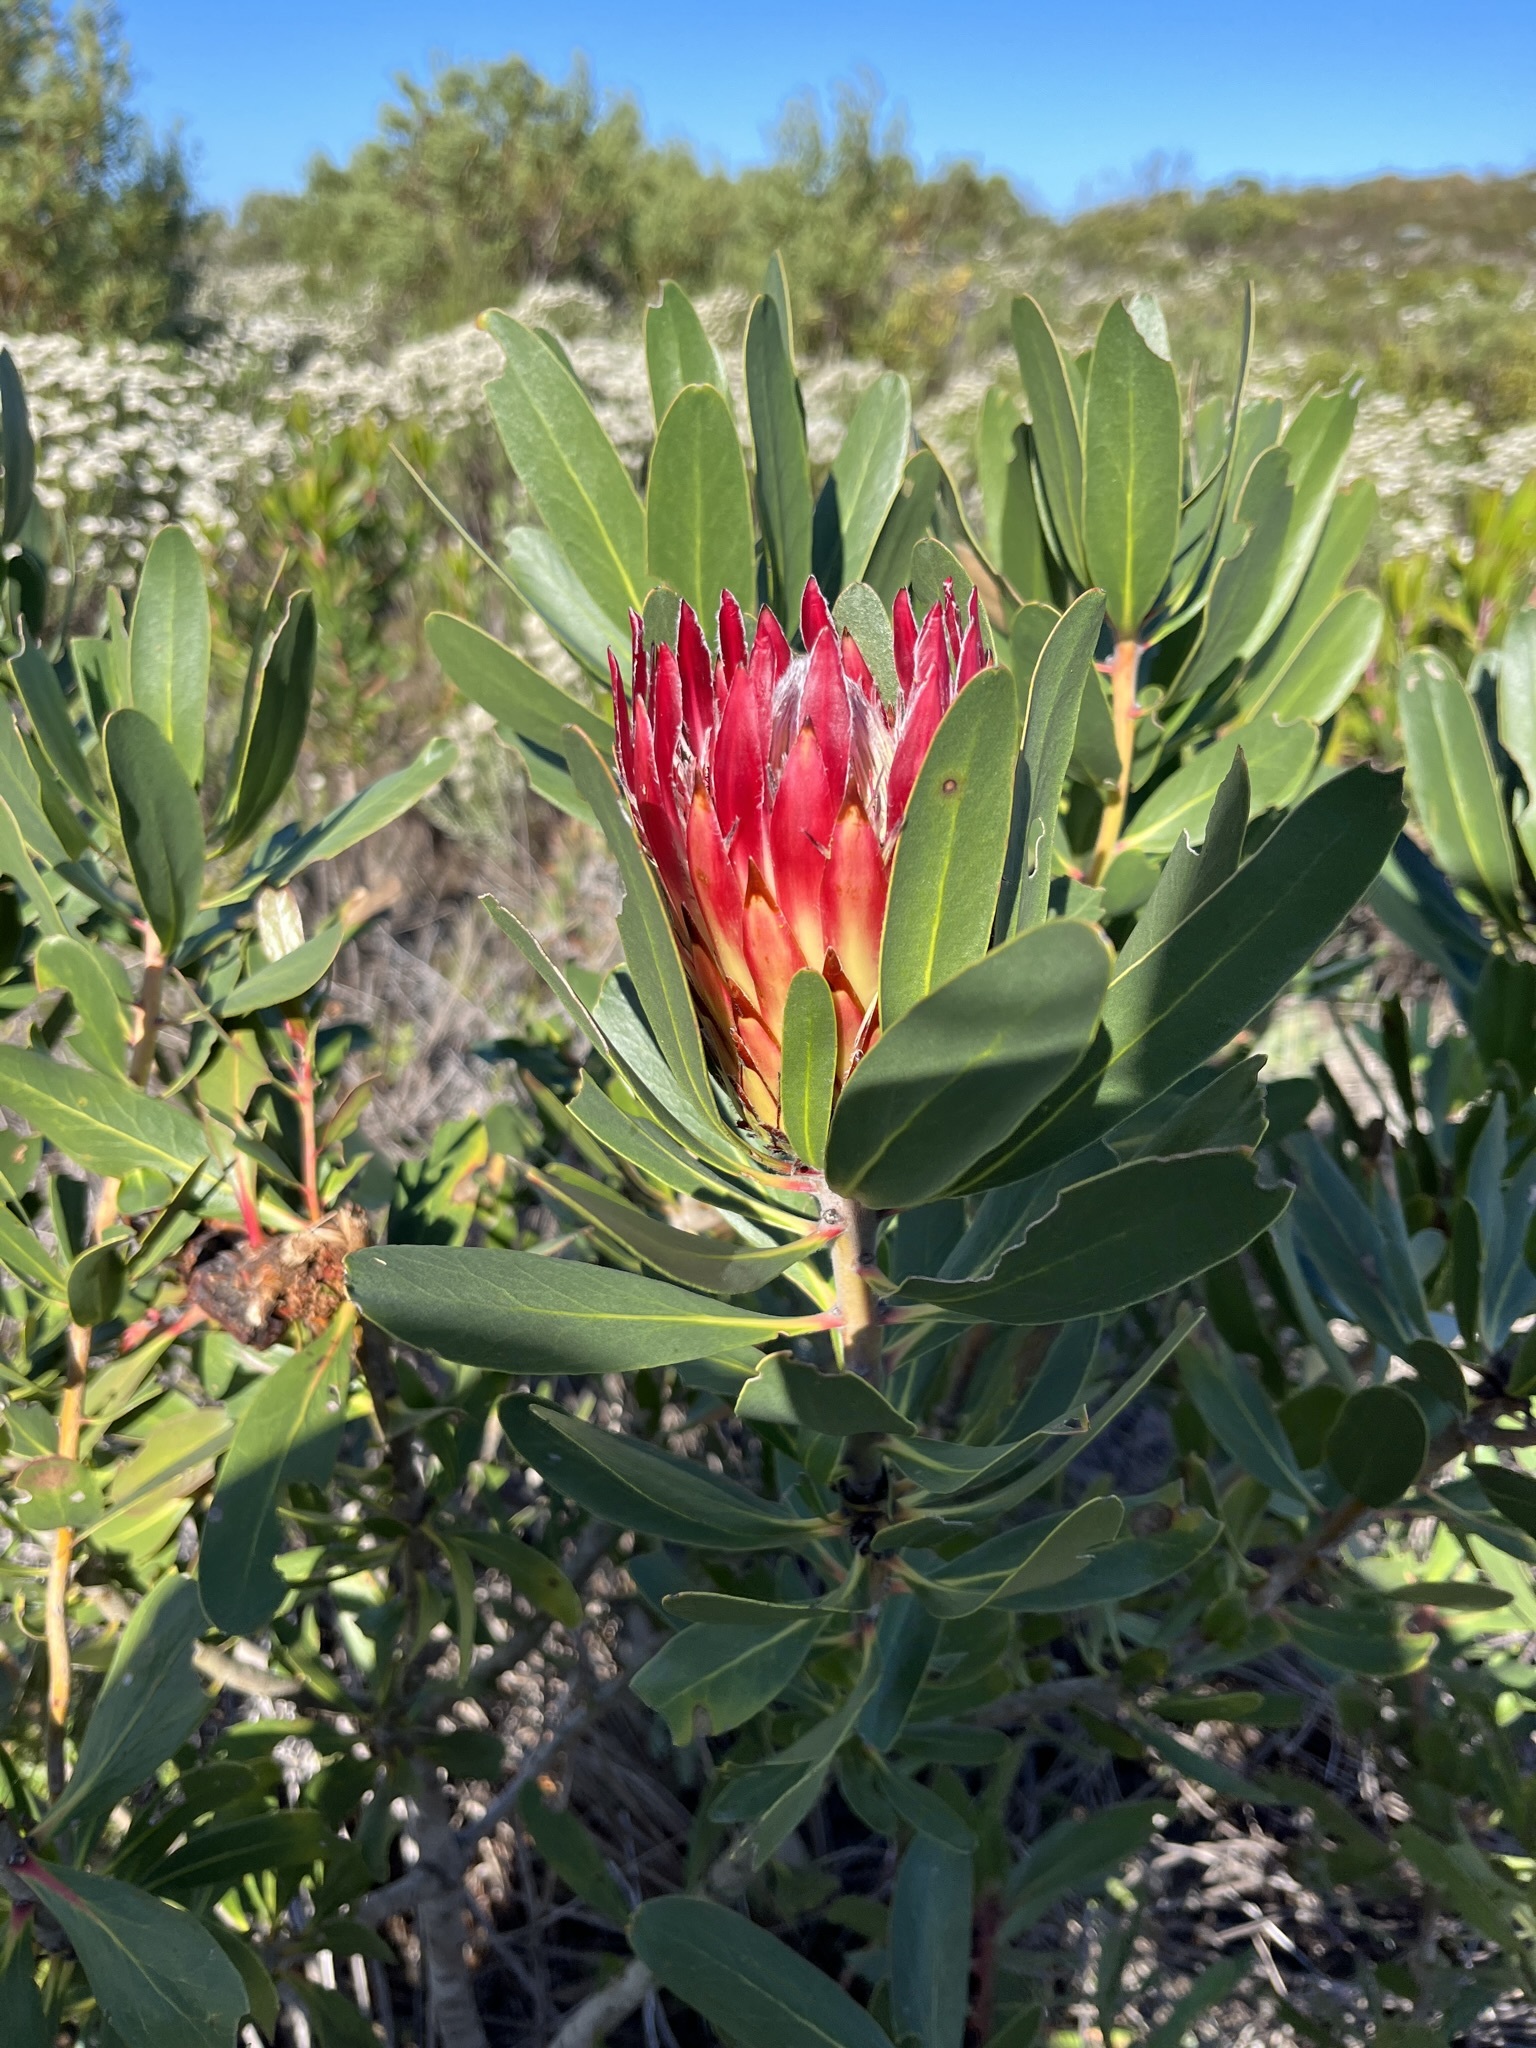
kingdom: Plantae
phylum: Tracheophyta
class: Magnoliopsida
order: Proteales
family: Proteaceae
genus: Protea
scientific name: Protea obtusifolia
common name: Bredasdorp sugarbush
